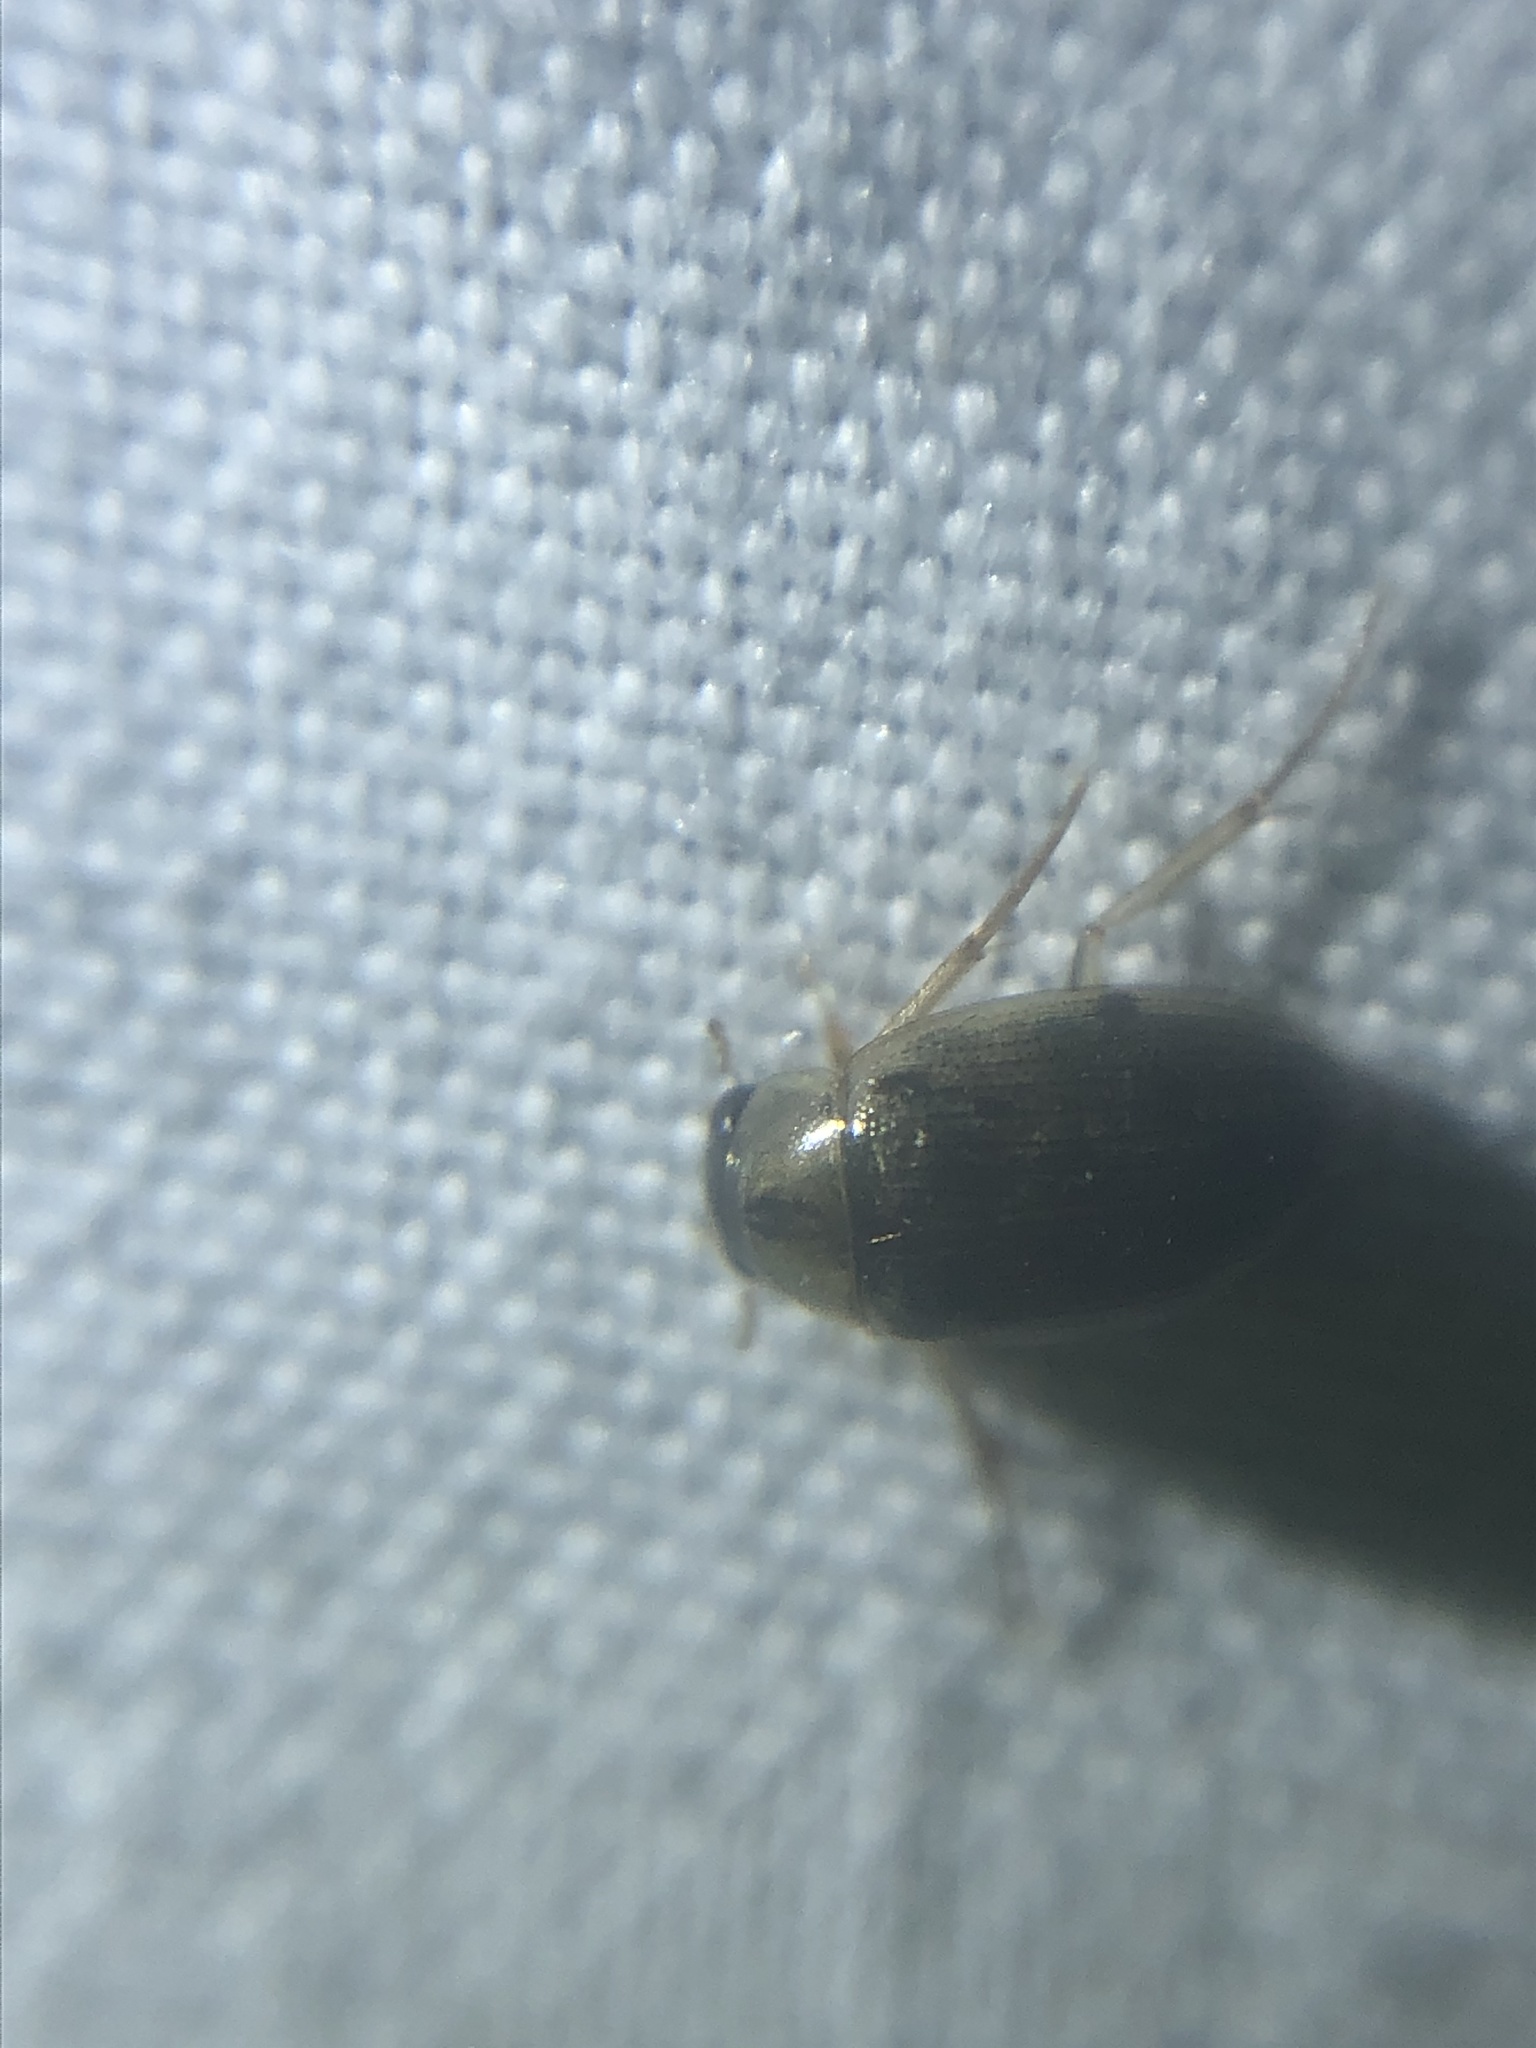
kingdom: Animalia
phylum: Arthropoda
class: Insecta
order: Coleoptera
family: Hydrophilidae
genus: Berosus
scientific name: Berosus
